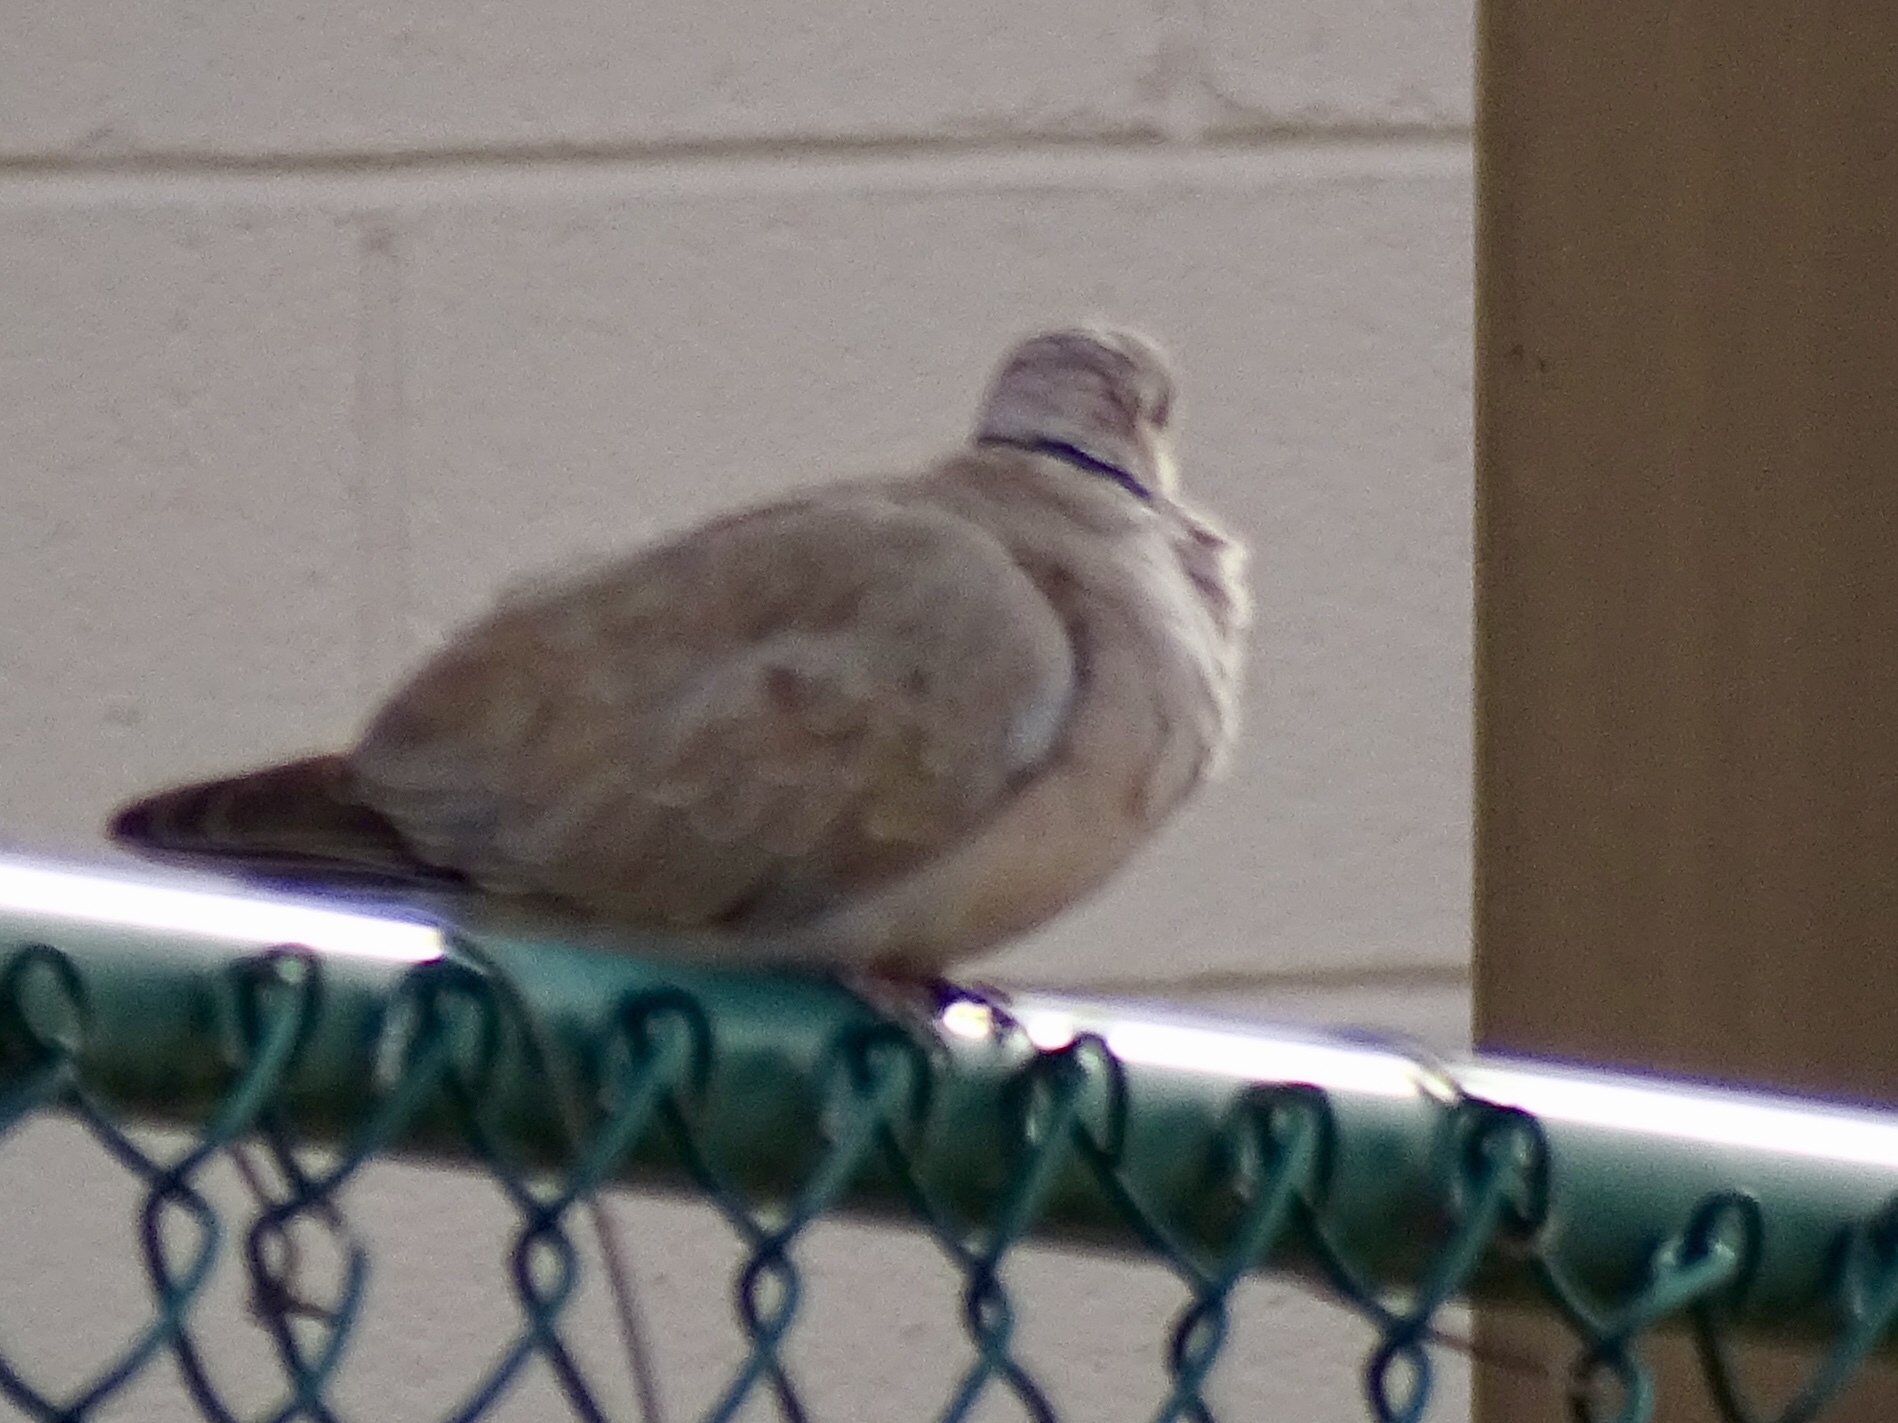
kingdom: Animalia
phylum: Chordata
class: Aves
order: Columbiformes
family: Columbidae
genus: Streptopelia
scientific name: Streptopelia decaocto
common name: Eurasian collared dove
